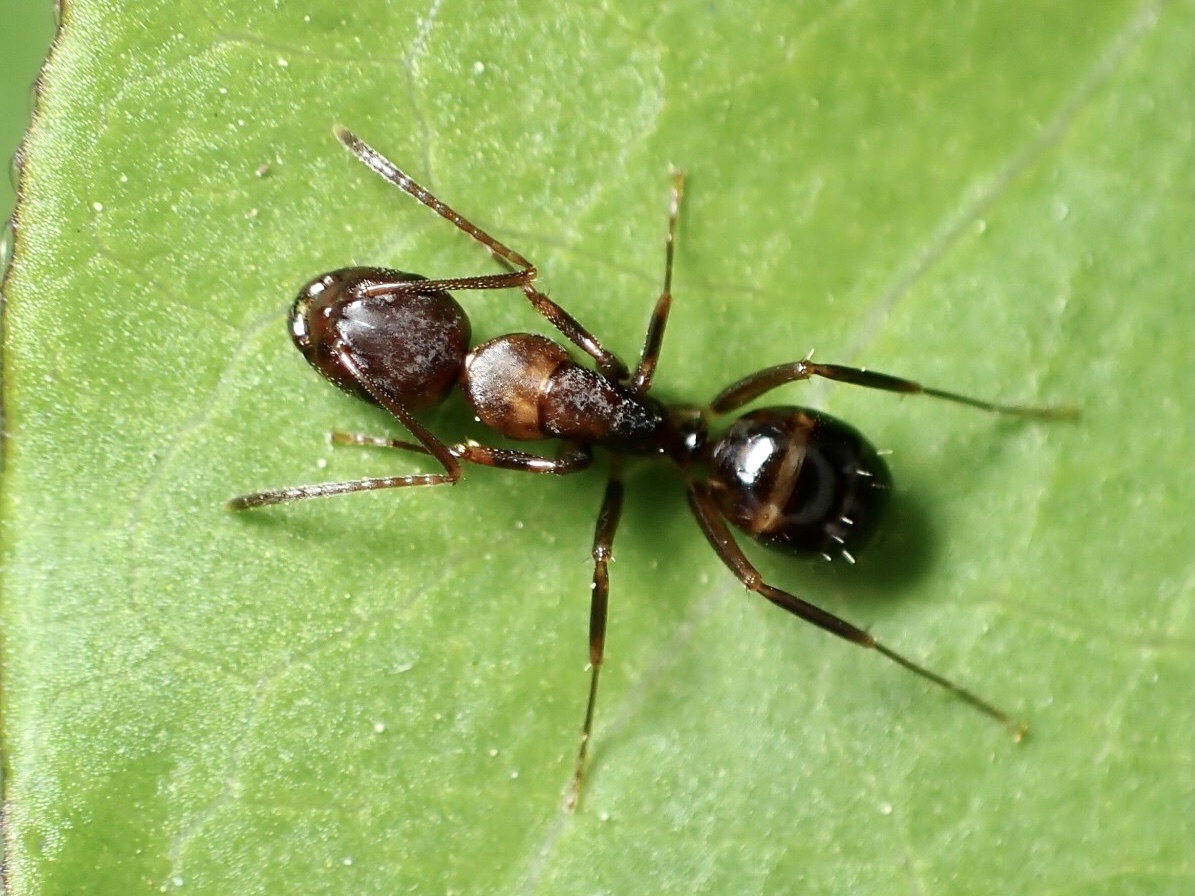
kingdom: Animalia
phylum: Arthropoda
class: Insecta
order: Hymenoptera
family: Formicidae
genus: Camponotus
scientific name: Camponotus subbarbatus
